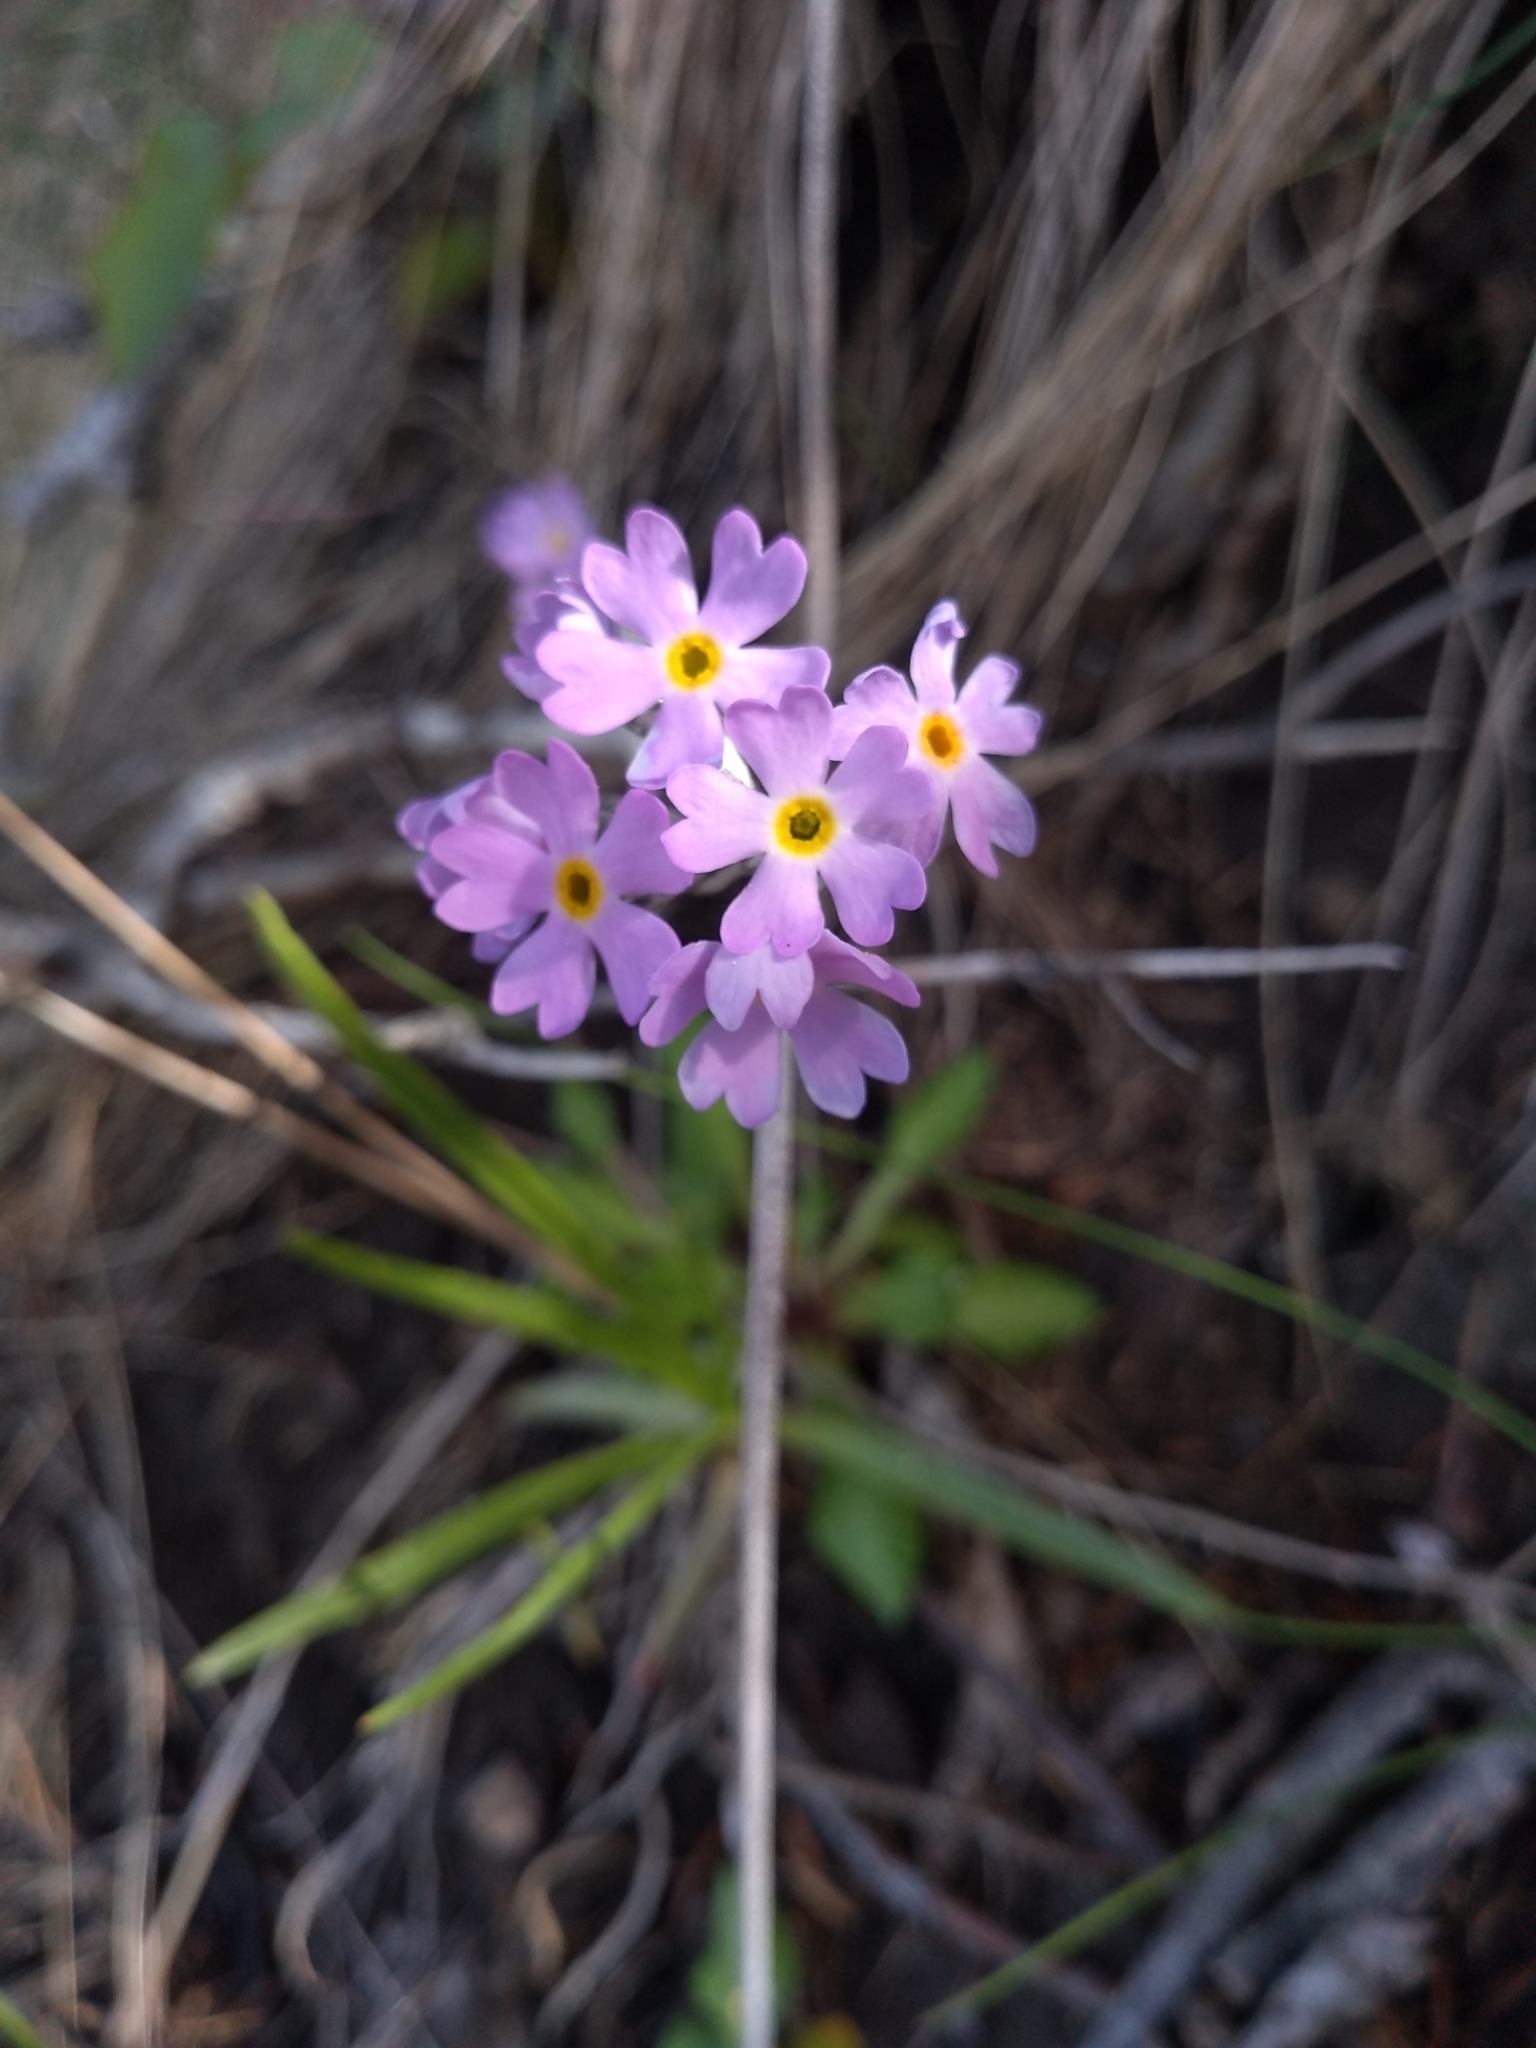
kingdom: Plantae
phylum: Tracheophyta
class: Magnoliopsida
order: Ericales
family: Primulaceae
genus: Primula
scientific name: Primula laurentiana
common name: Bird-eye primrose
